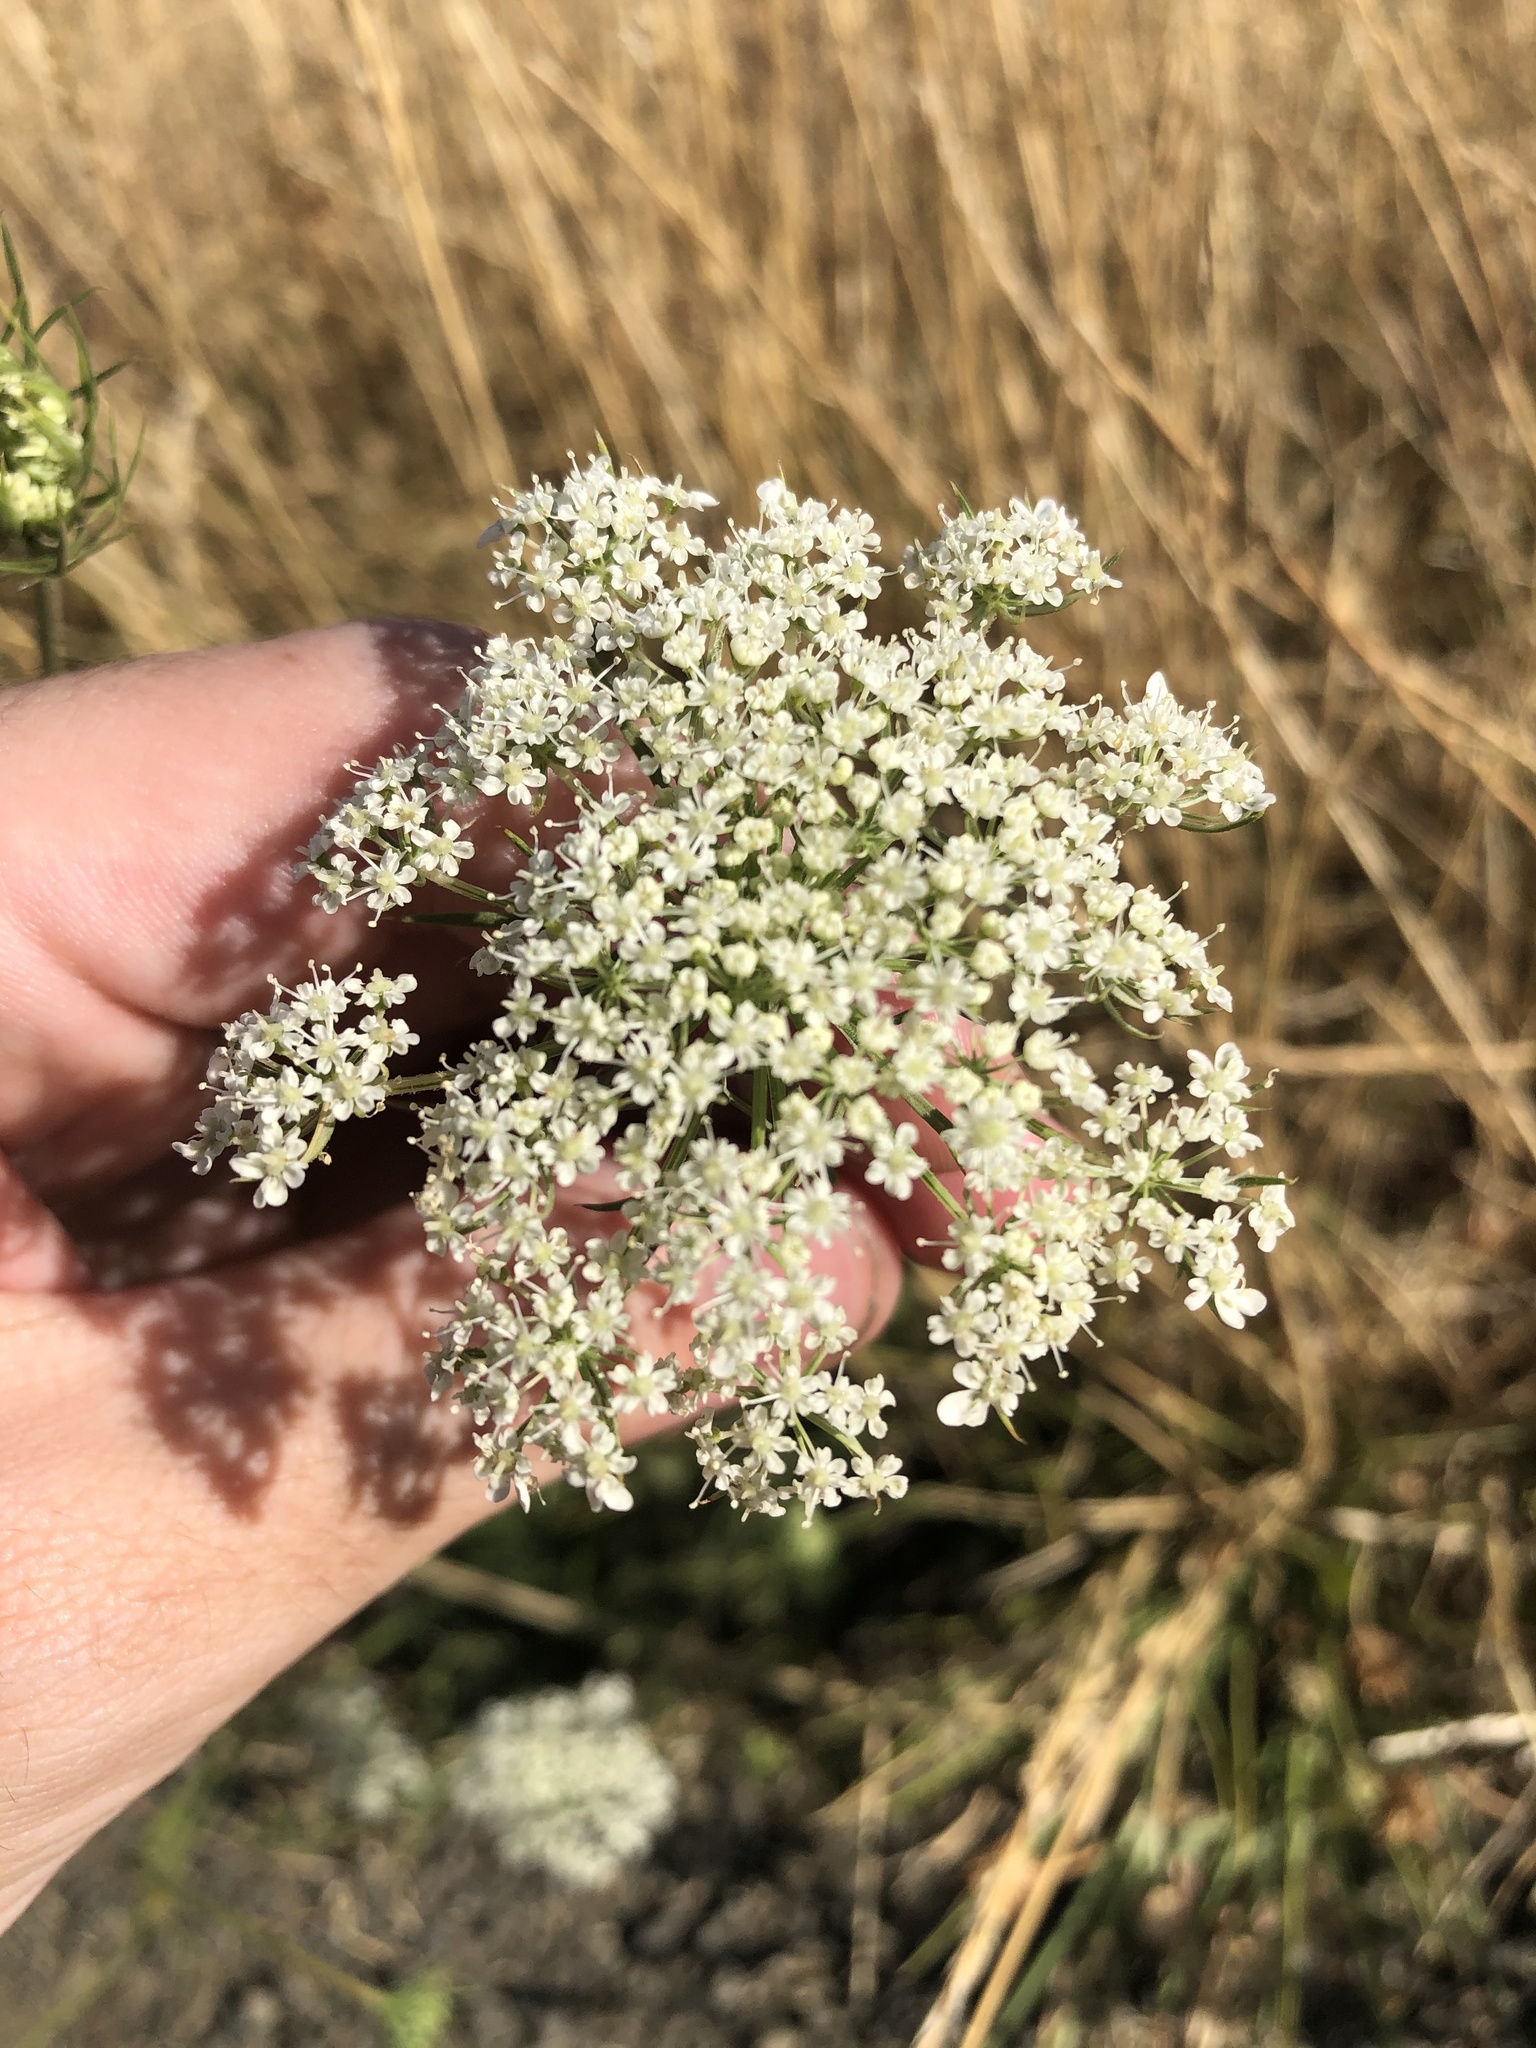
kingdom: Plantae
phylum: Tracheophyta
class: Magnoliopsida
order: Apiales
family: Apiaceae
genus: Daucus
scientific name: Daucus carota
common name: Wild carrot
